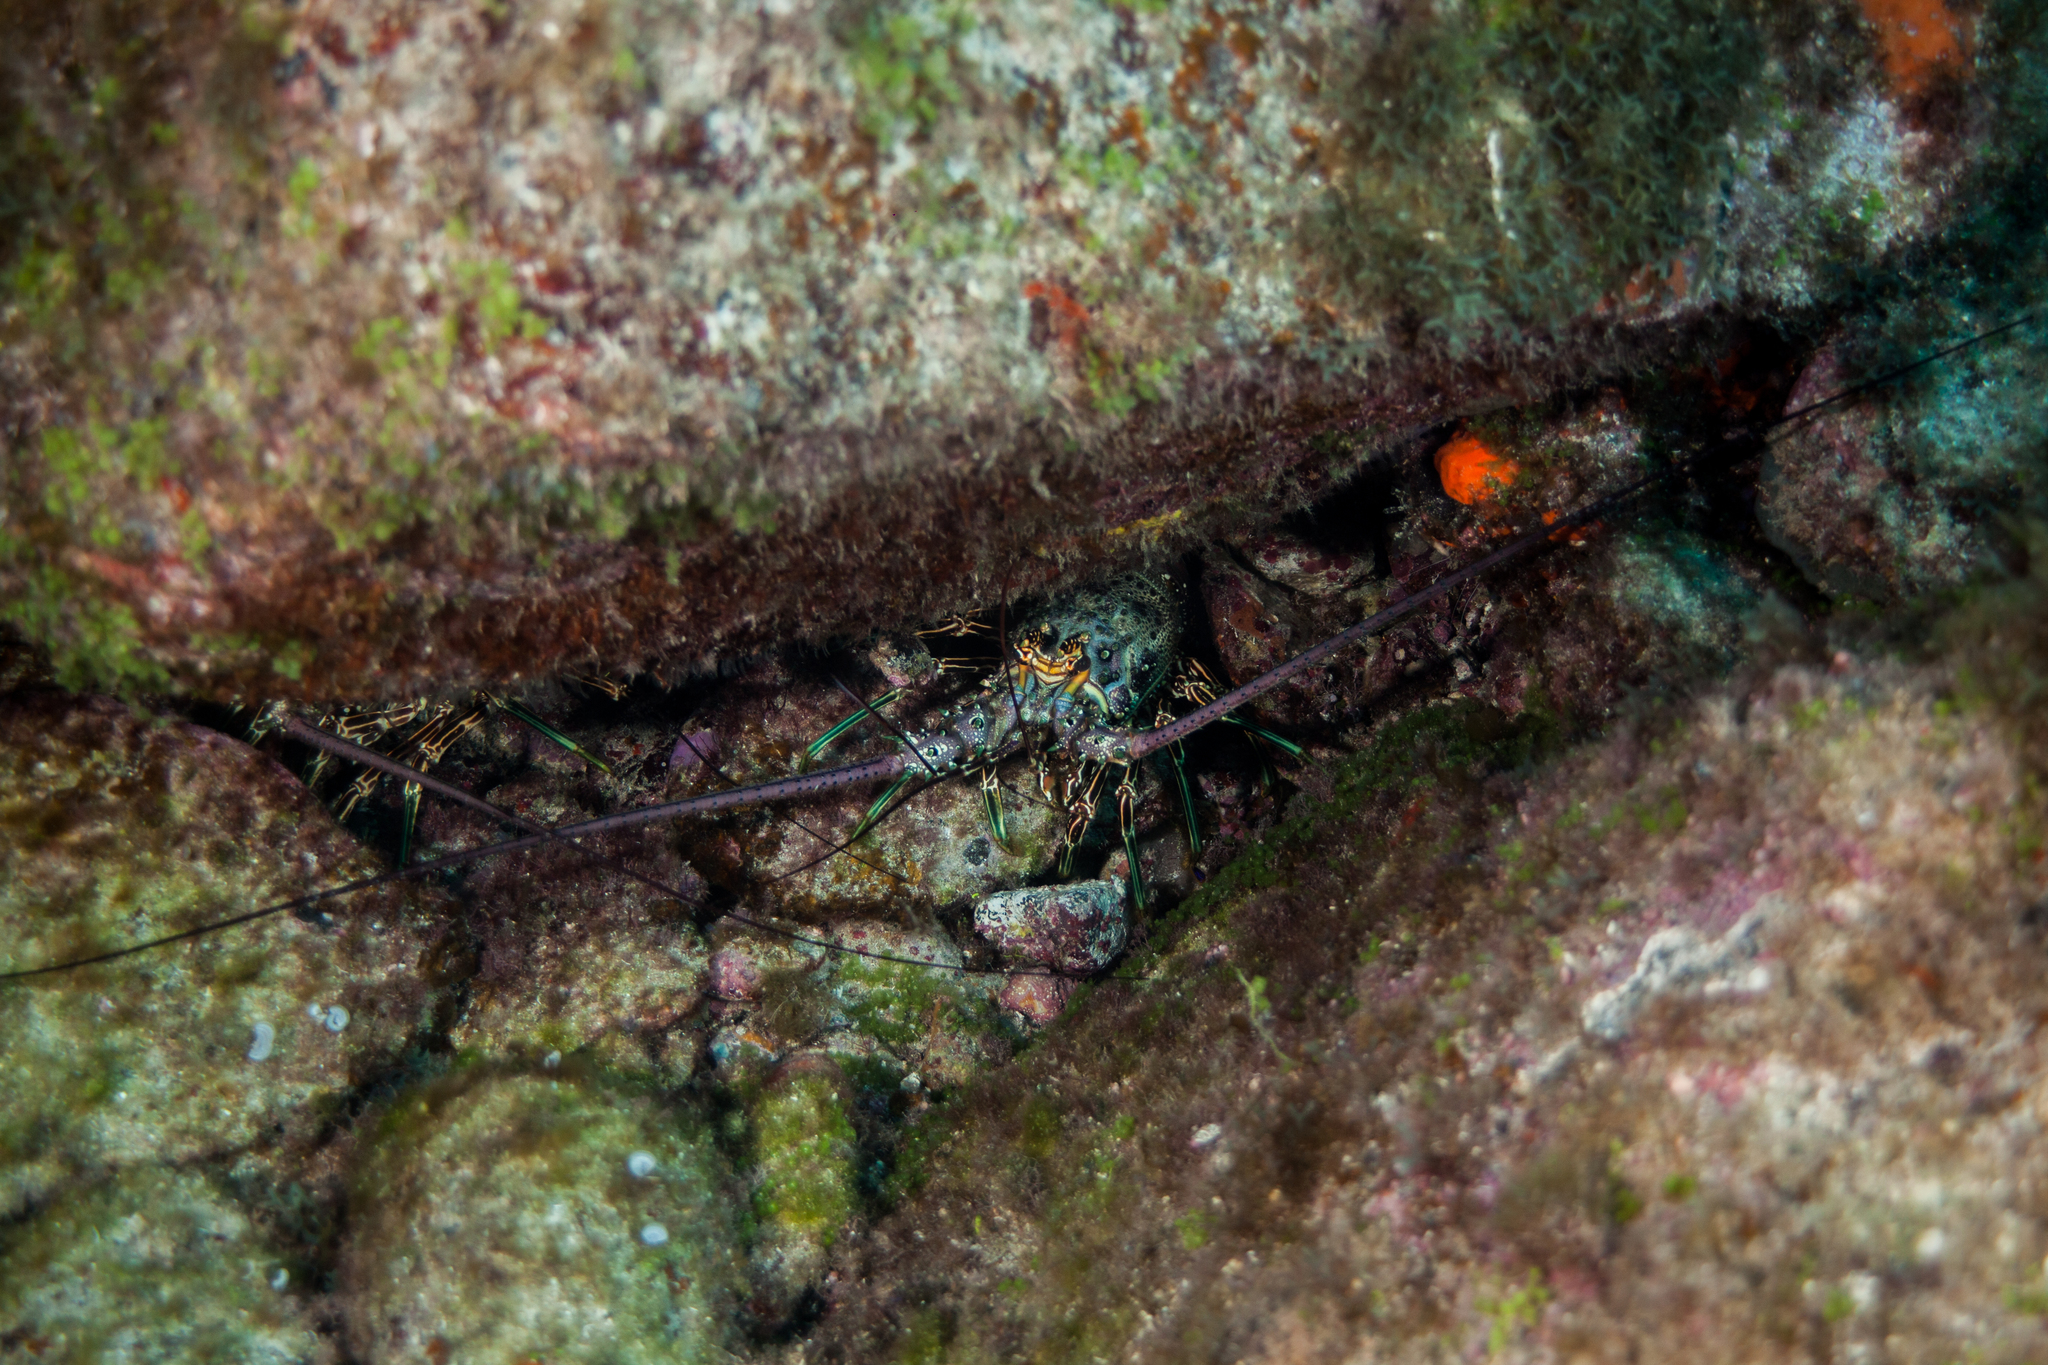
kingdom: Animalia
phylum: Arthropoda
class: Malacostraca
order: Decapoda
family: Palinuridae
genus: Panulirus
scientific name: Panulirus laevicauda
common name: Smoothtail spiny lobster
